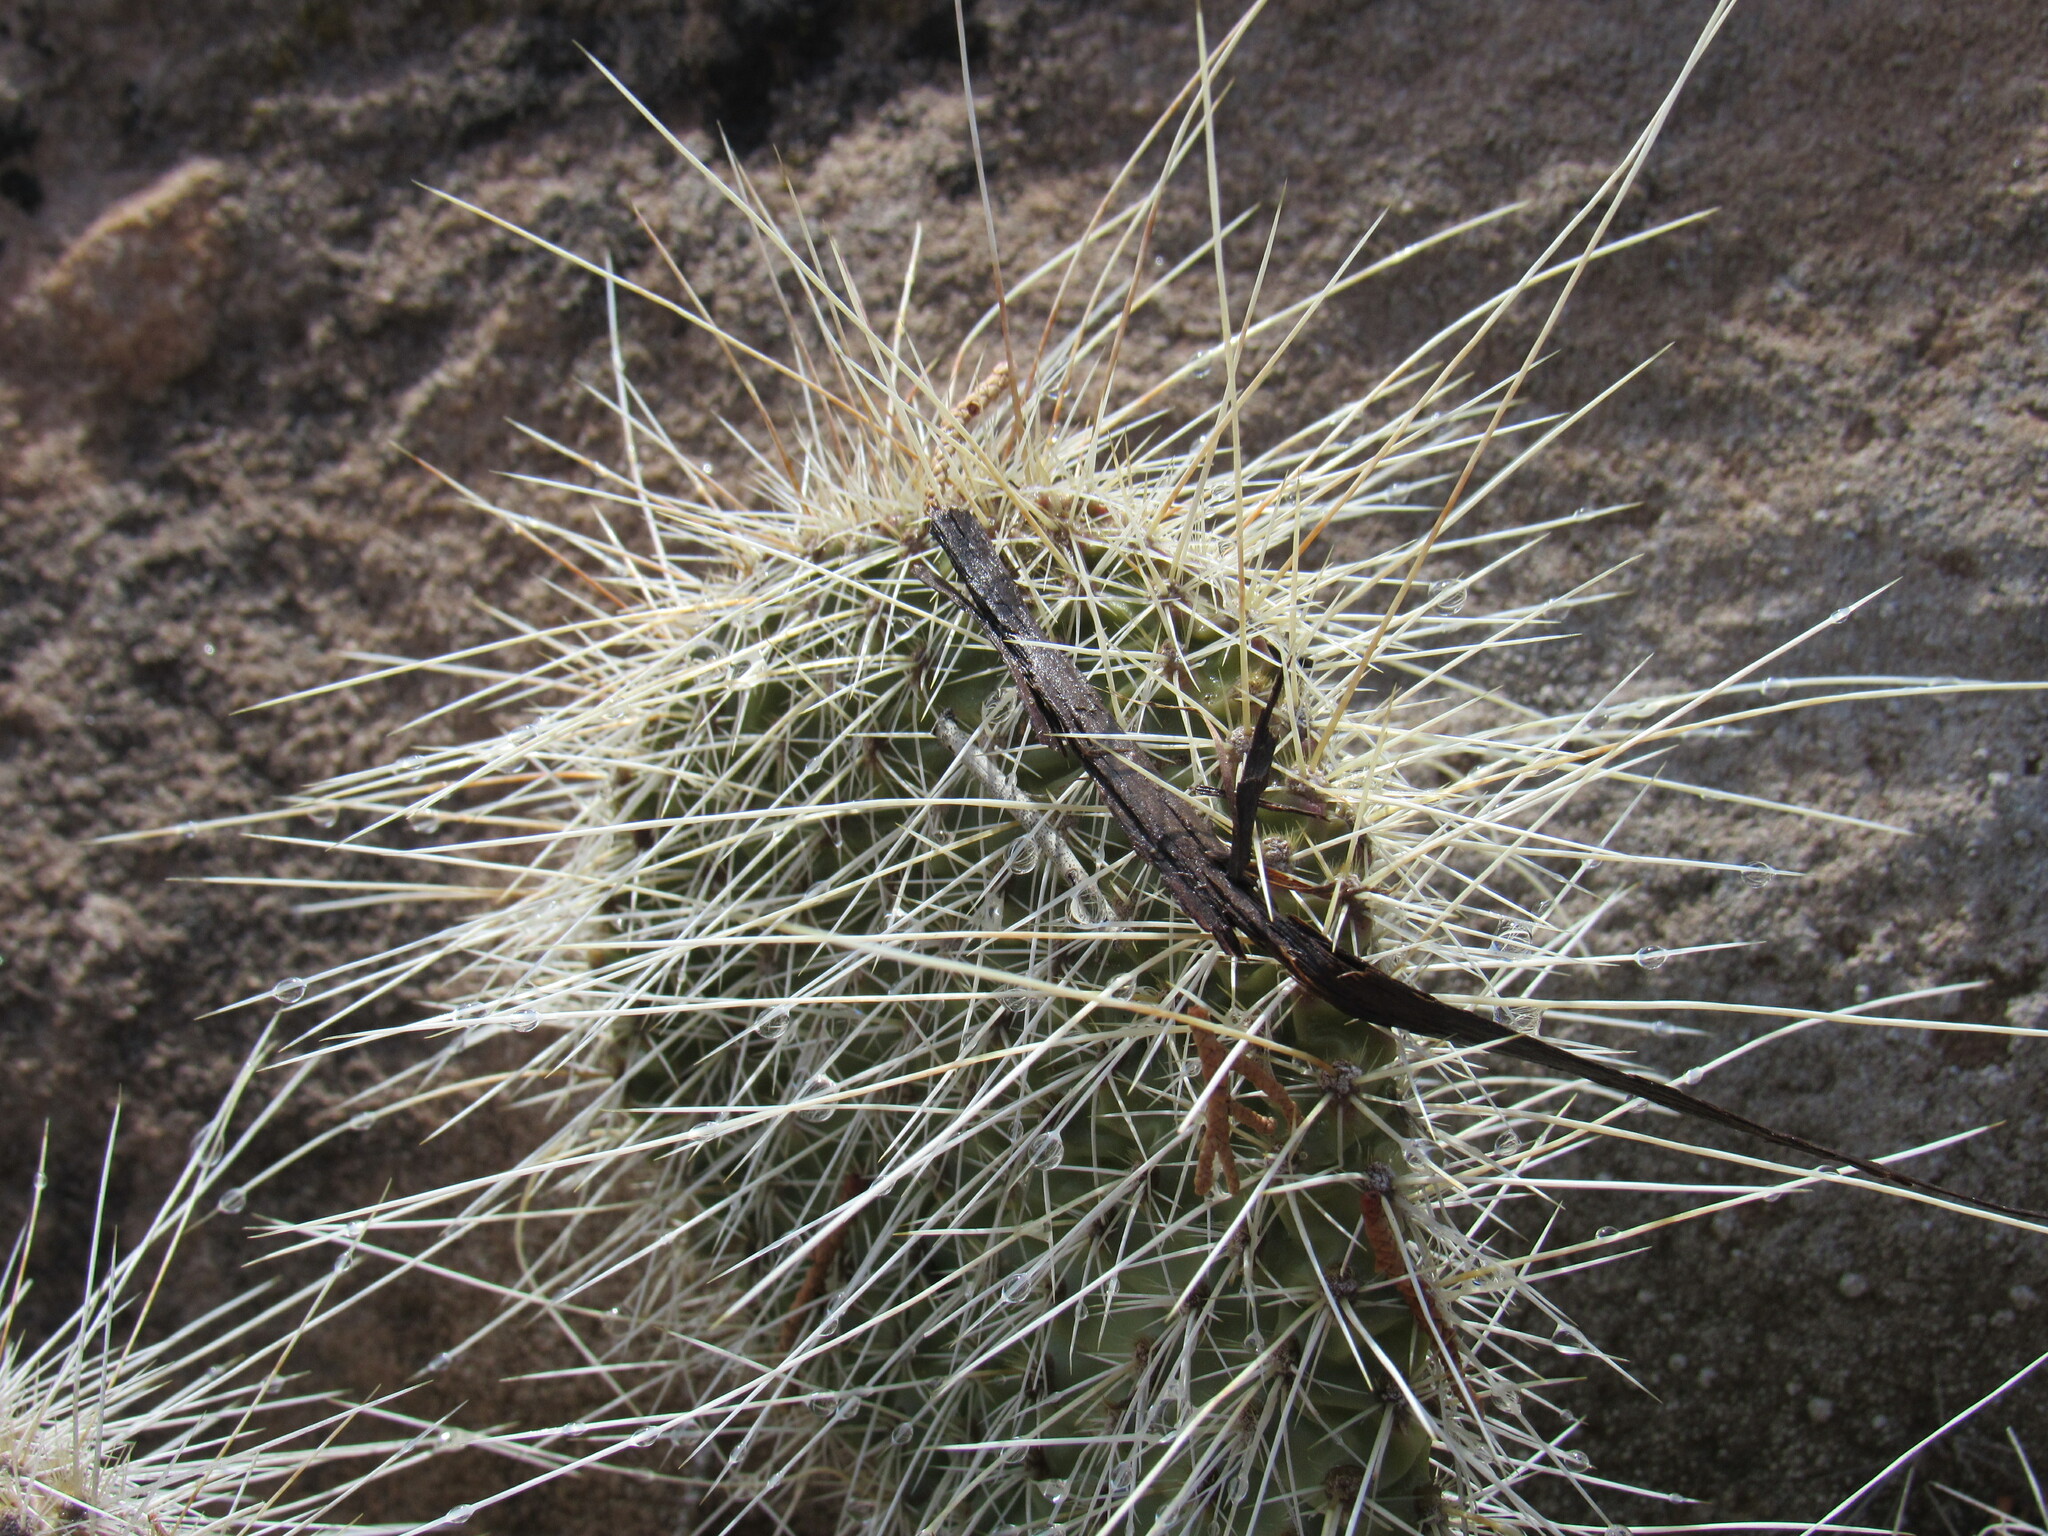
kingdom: Plantae
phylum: Tracheophyta
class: Magnoliopsida
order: Caryophyllales
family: Cactaceae
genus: Opuntia
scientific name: Opuntia polyacantha
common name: Plains prickly-pear
